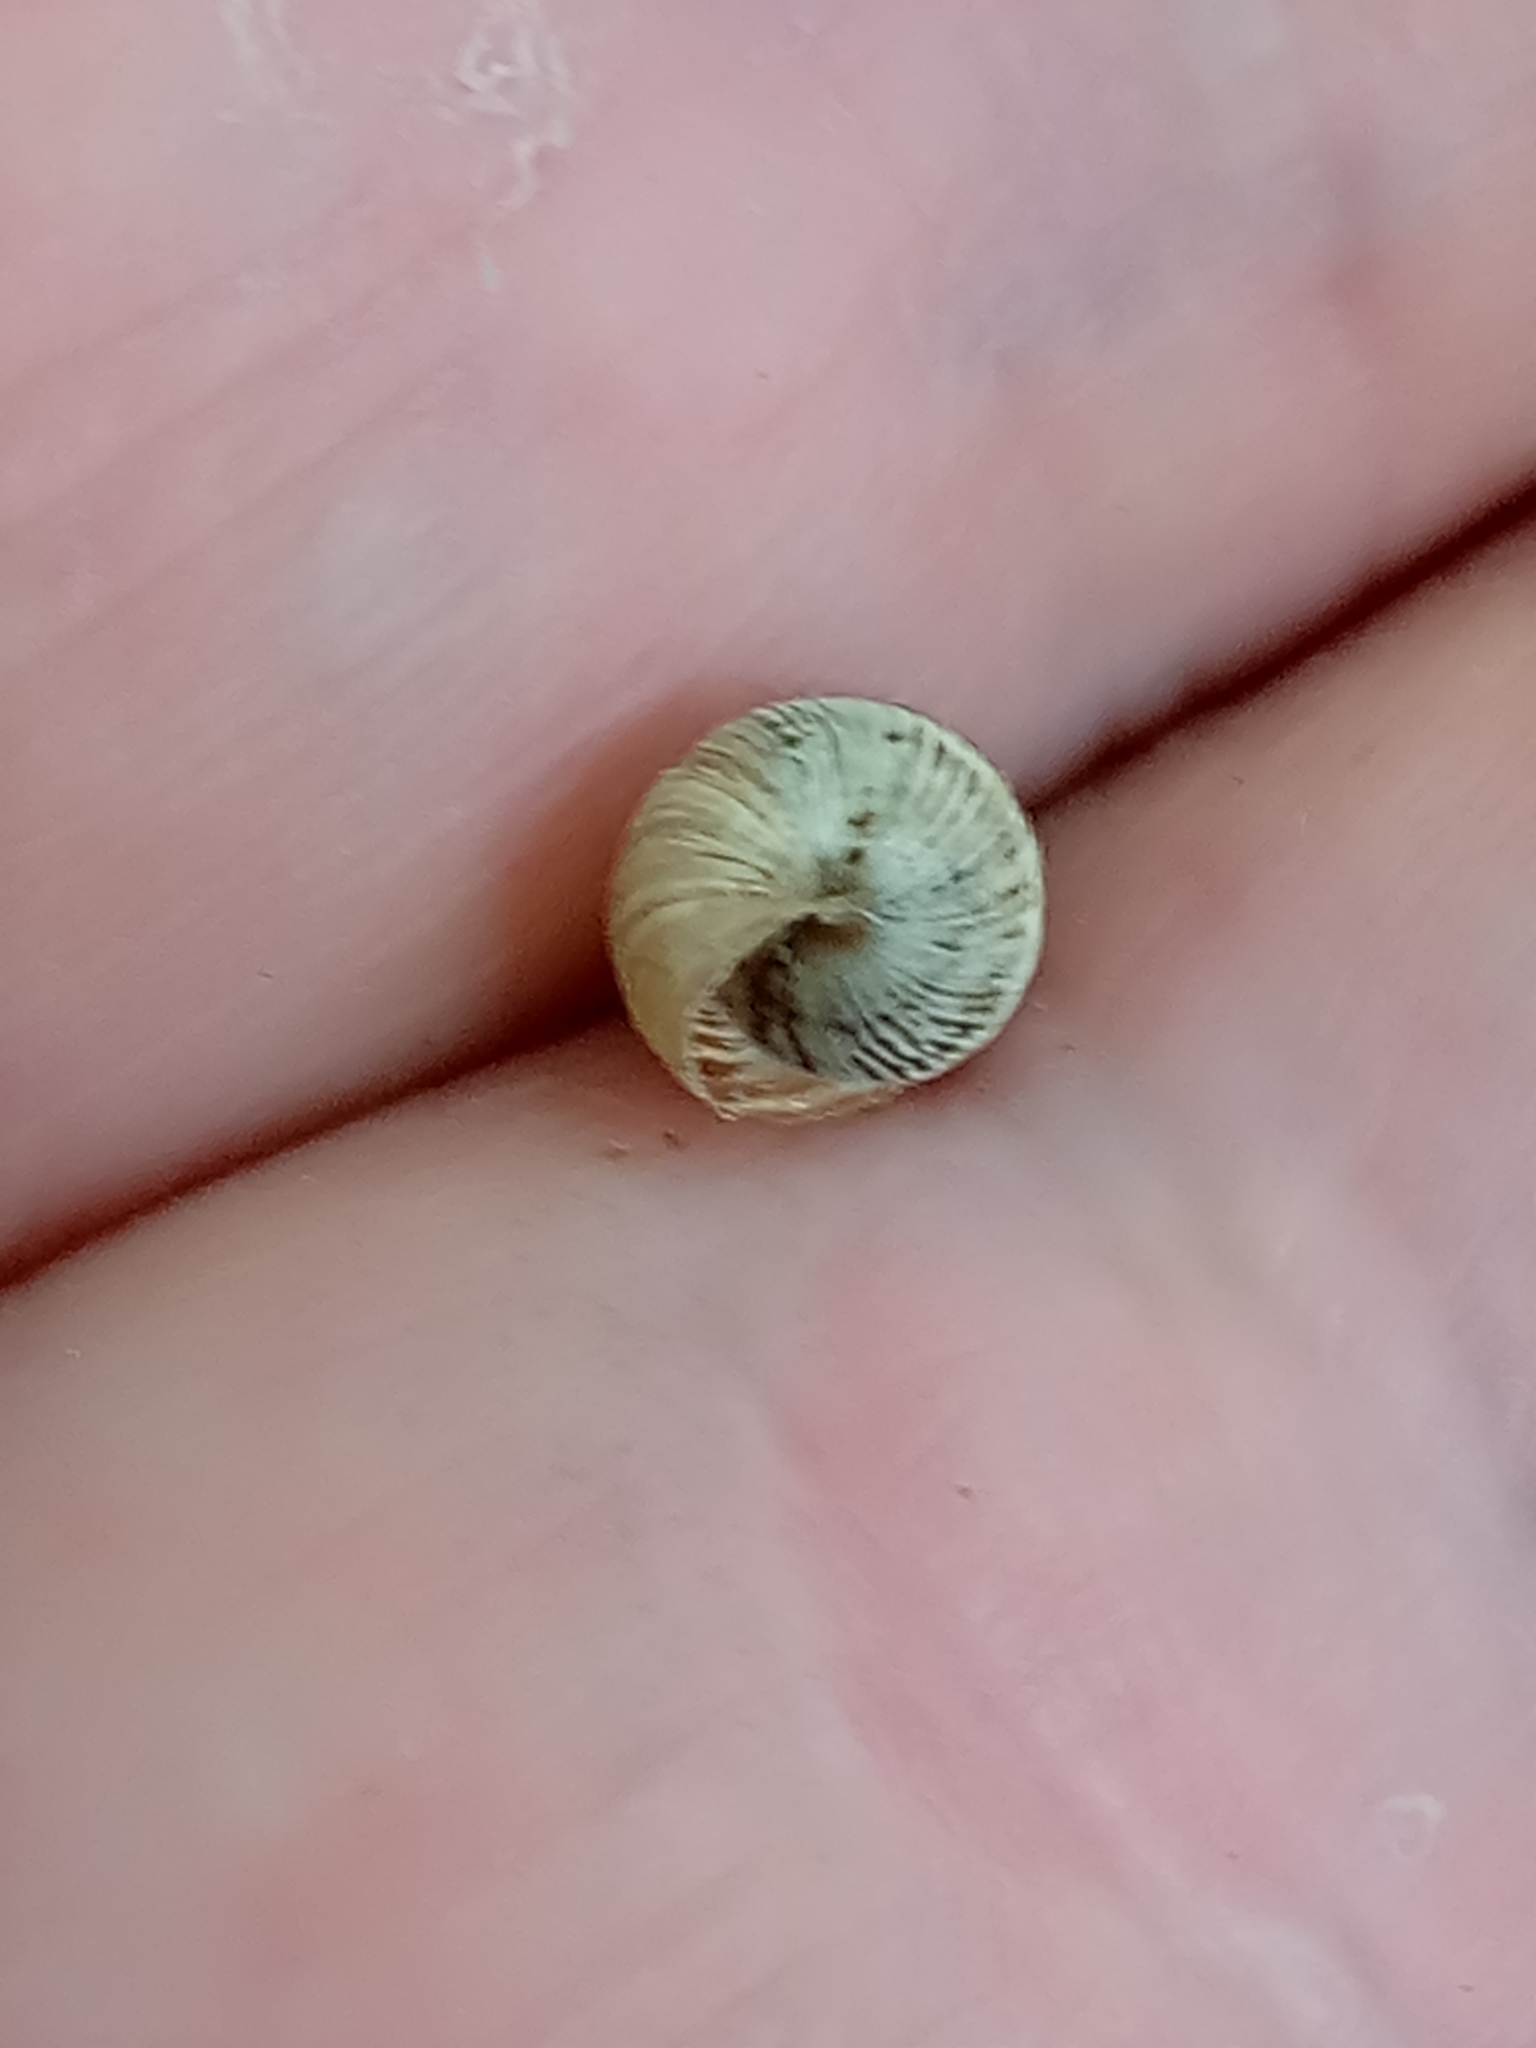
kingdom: Animalia
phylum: Mollusca
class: Gastropoda
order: Stylommatophora
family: Geomitridae
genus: Cochlicella
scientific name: Cochlicella barbara
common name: Potbellied helicellid
